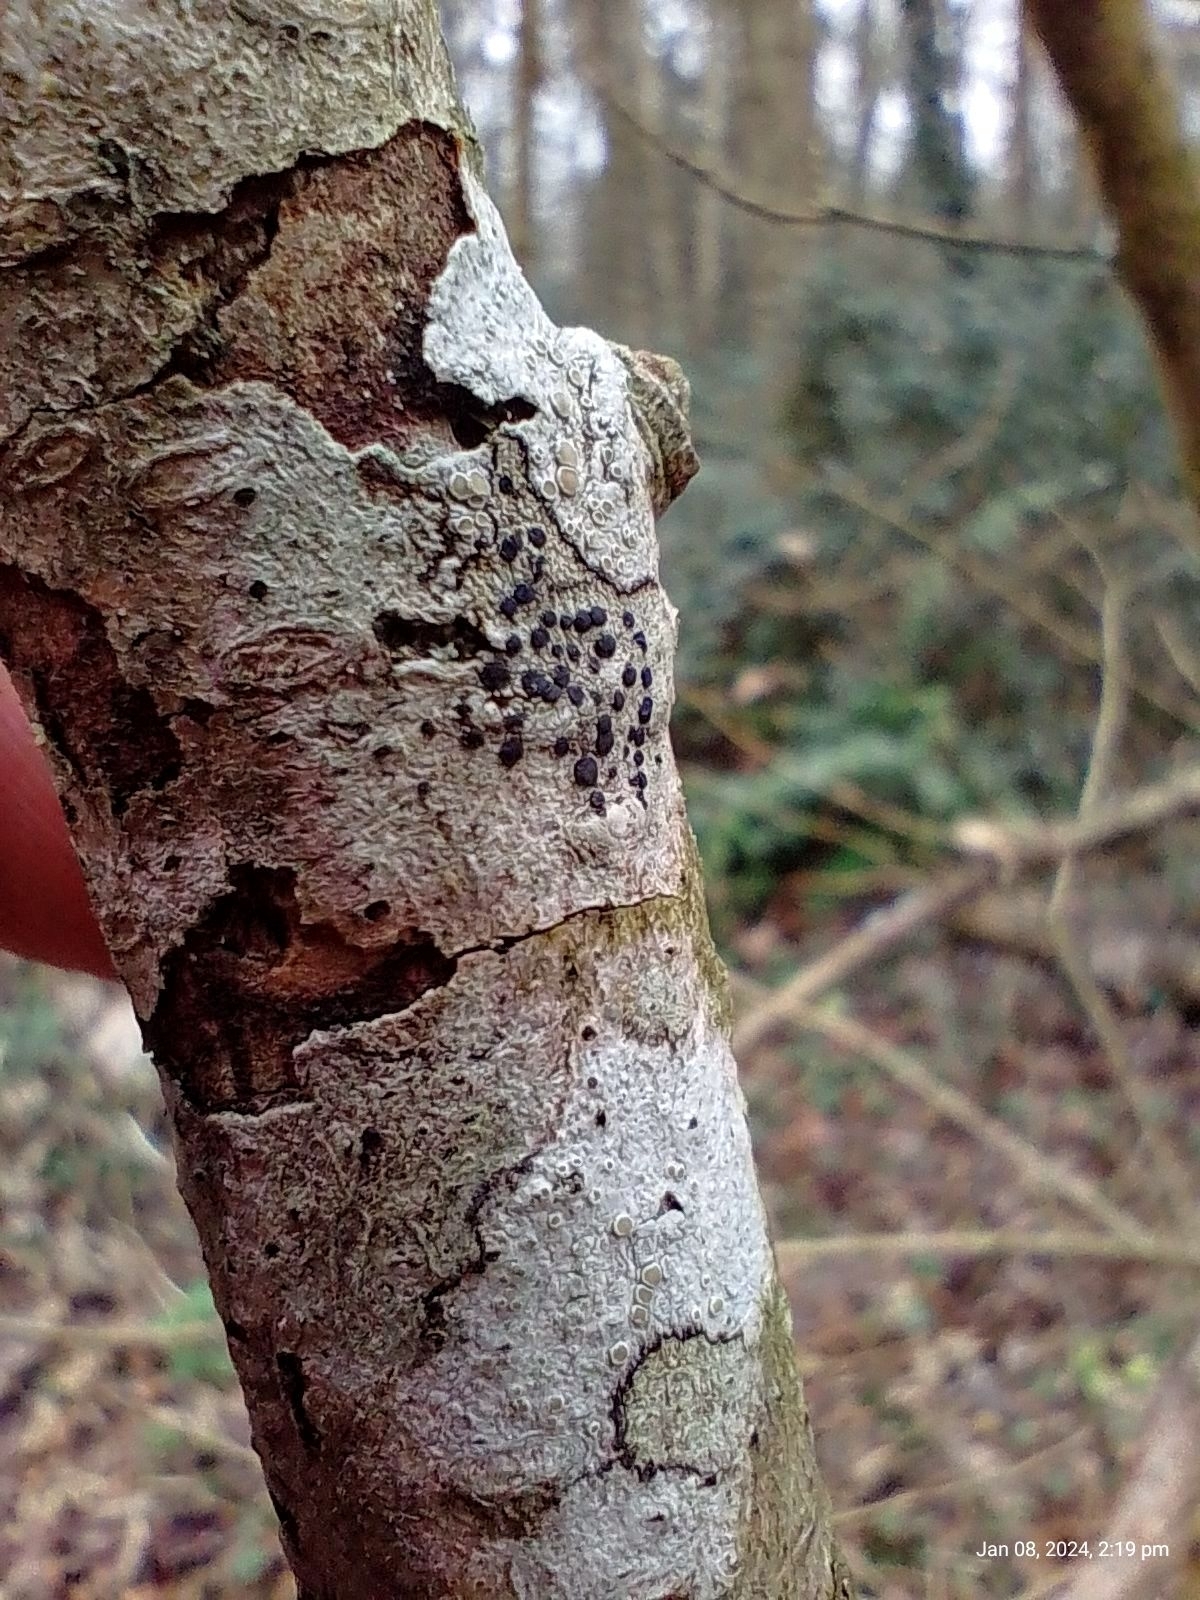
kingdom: Fungi
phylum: Ascomycota
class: Lecanoromycetes
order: Lecanorales
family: Lecanoraceae
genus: Lecidella
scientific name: Lecidella elaeochroma
